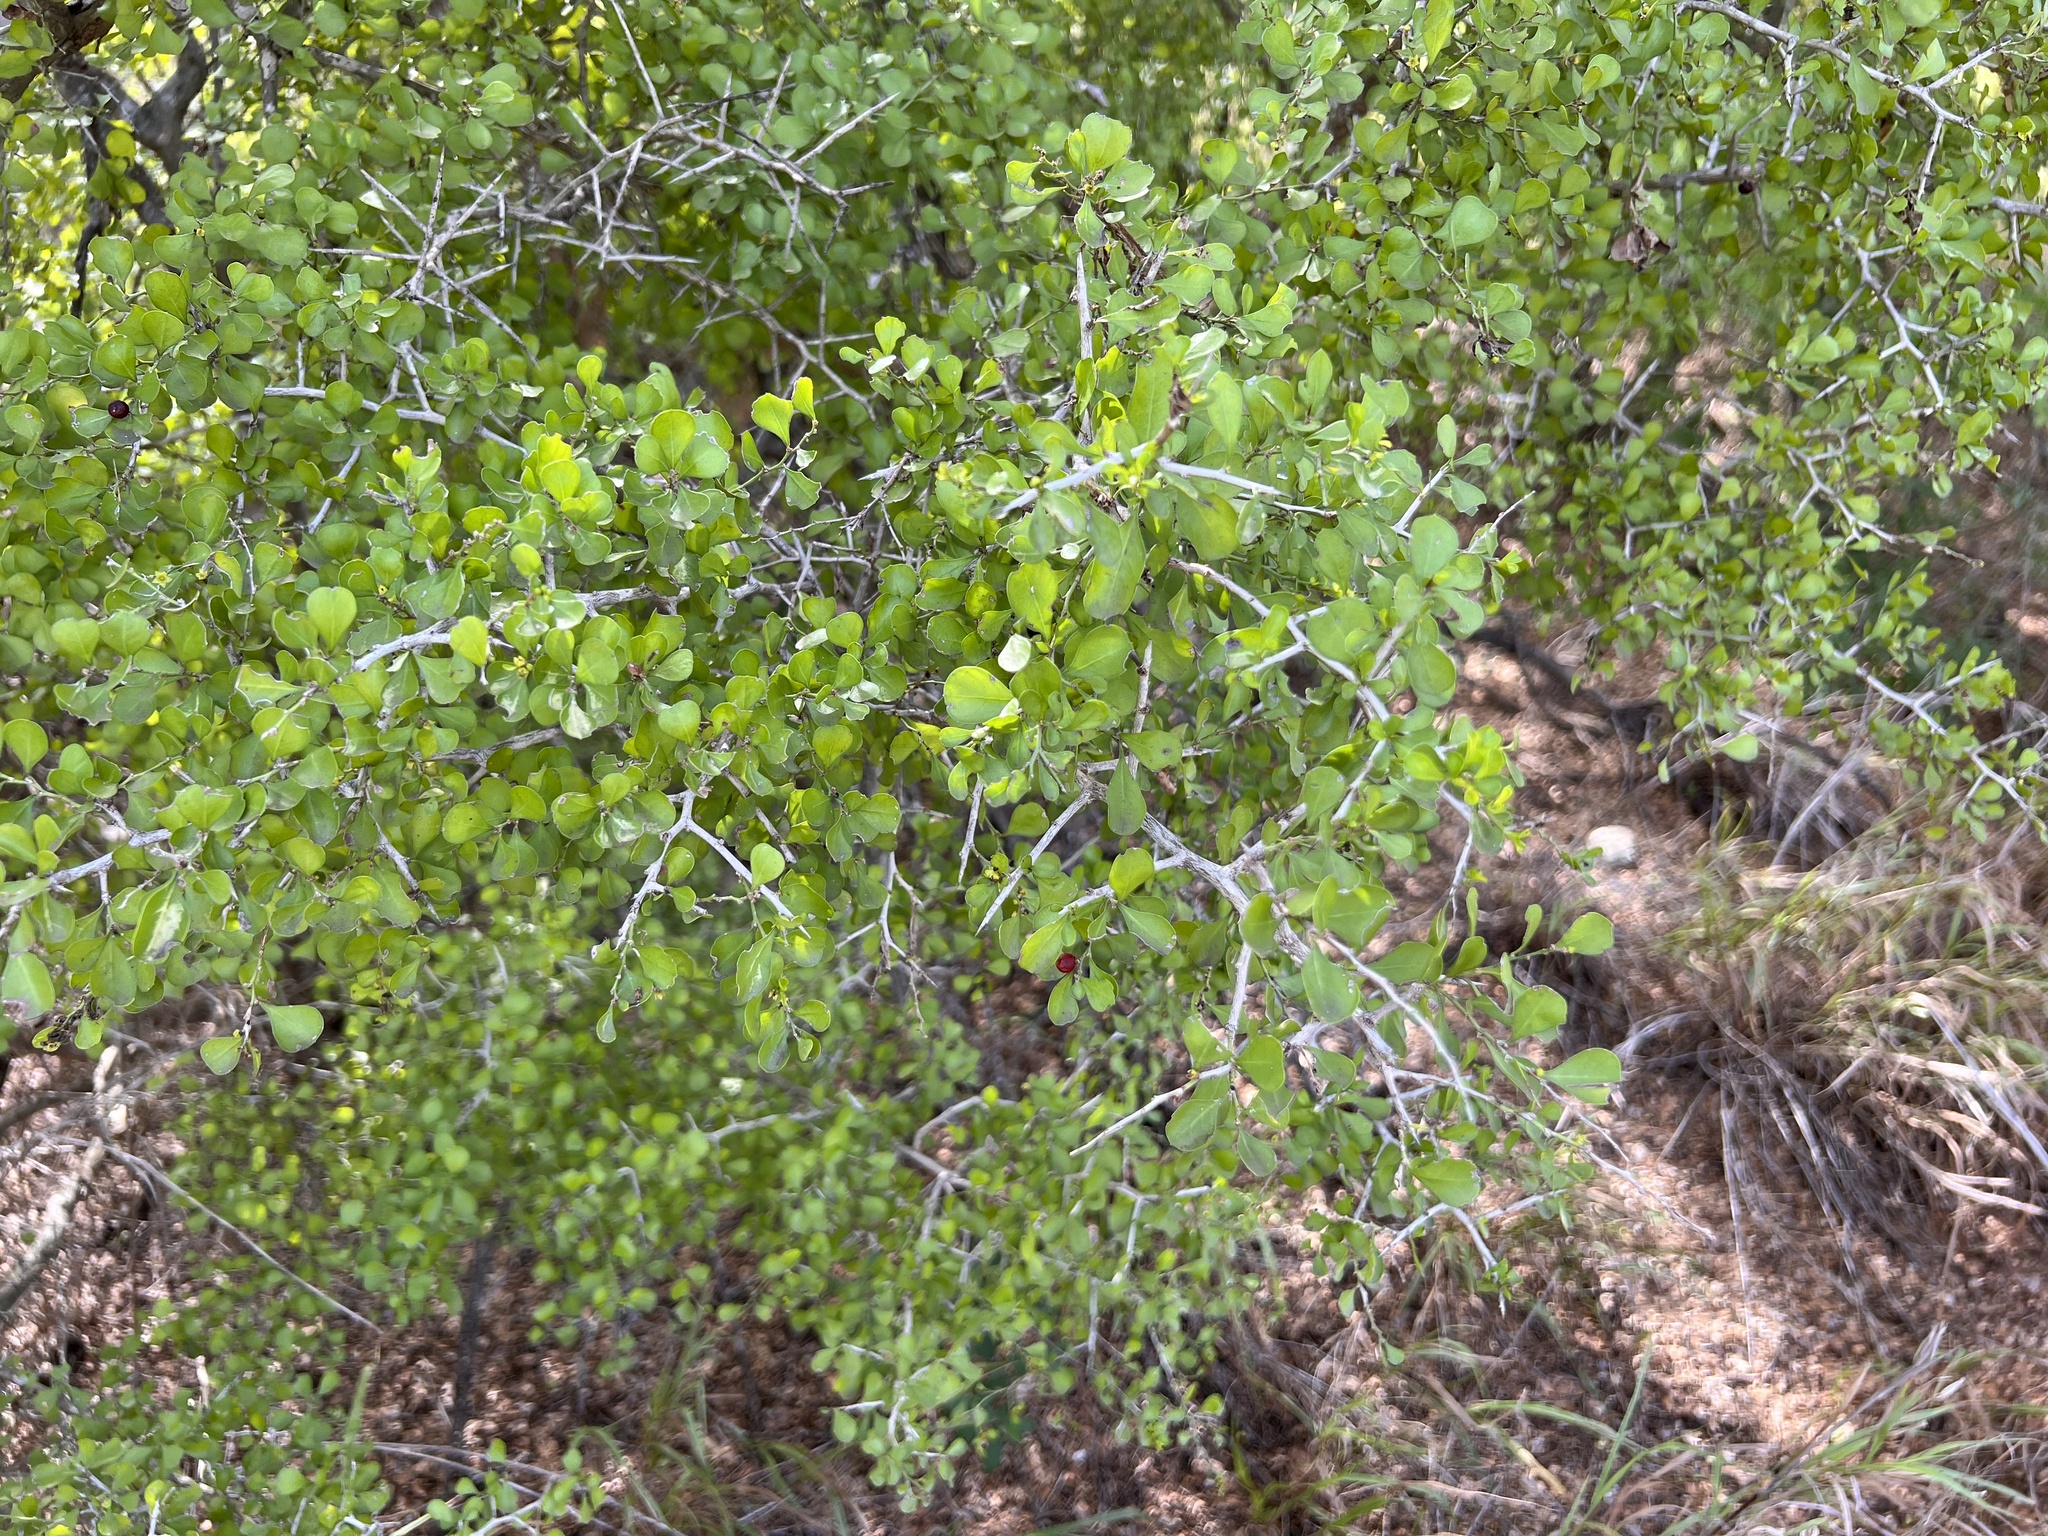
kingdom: Plantae
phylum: Tracheophyta
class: Magnoliopsida
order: Rosales
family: Rhamnaceae
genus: Condalia
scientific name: Condalia hookeri
